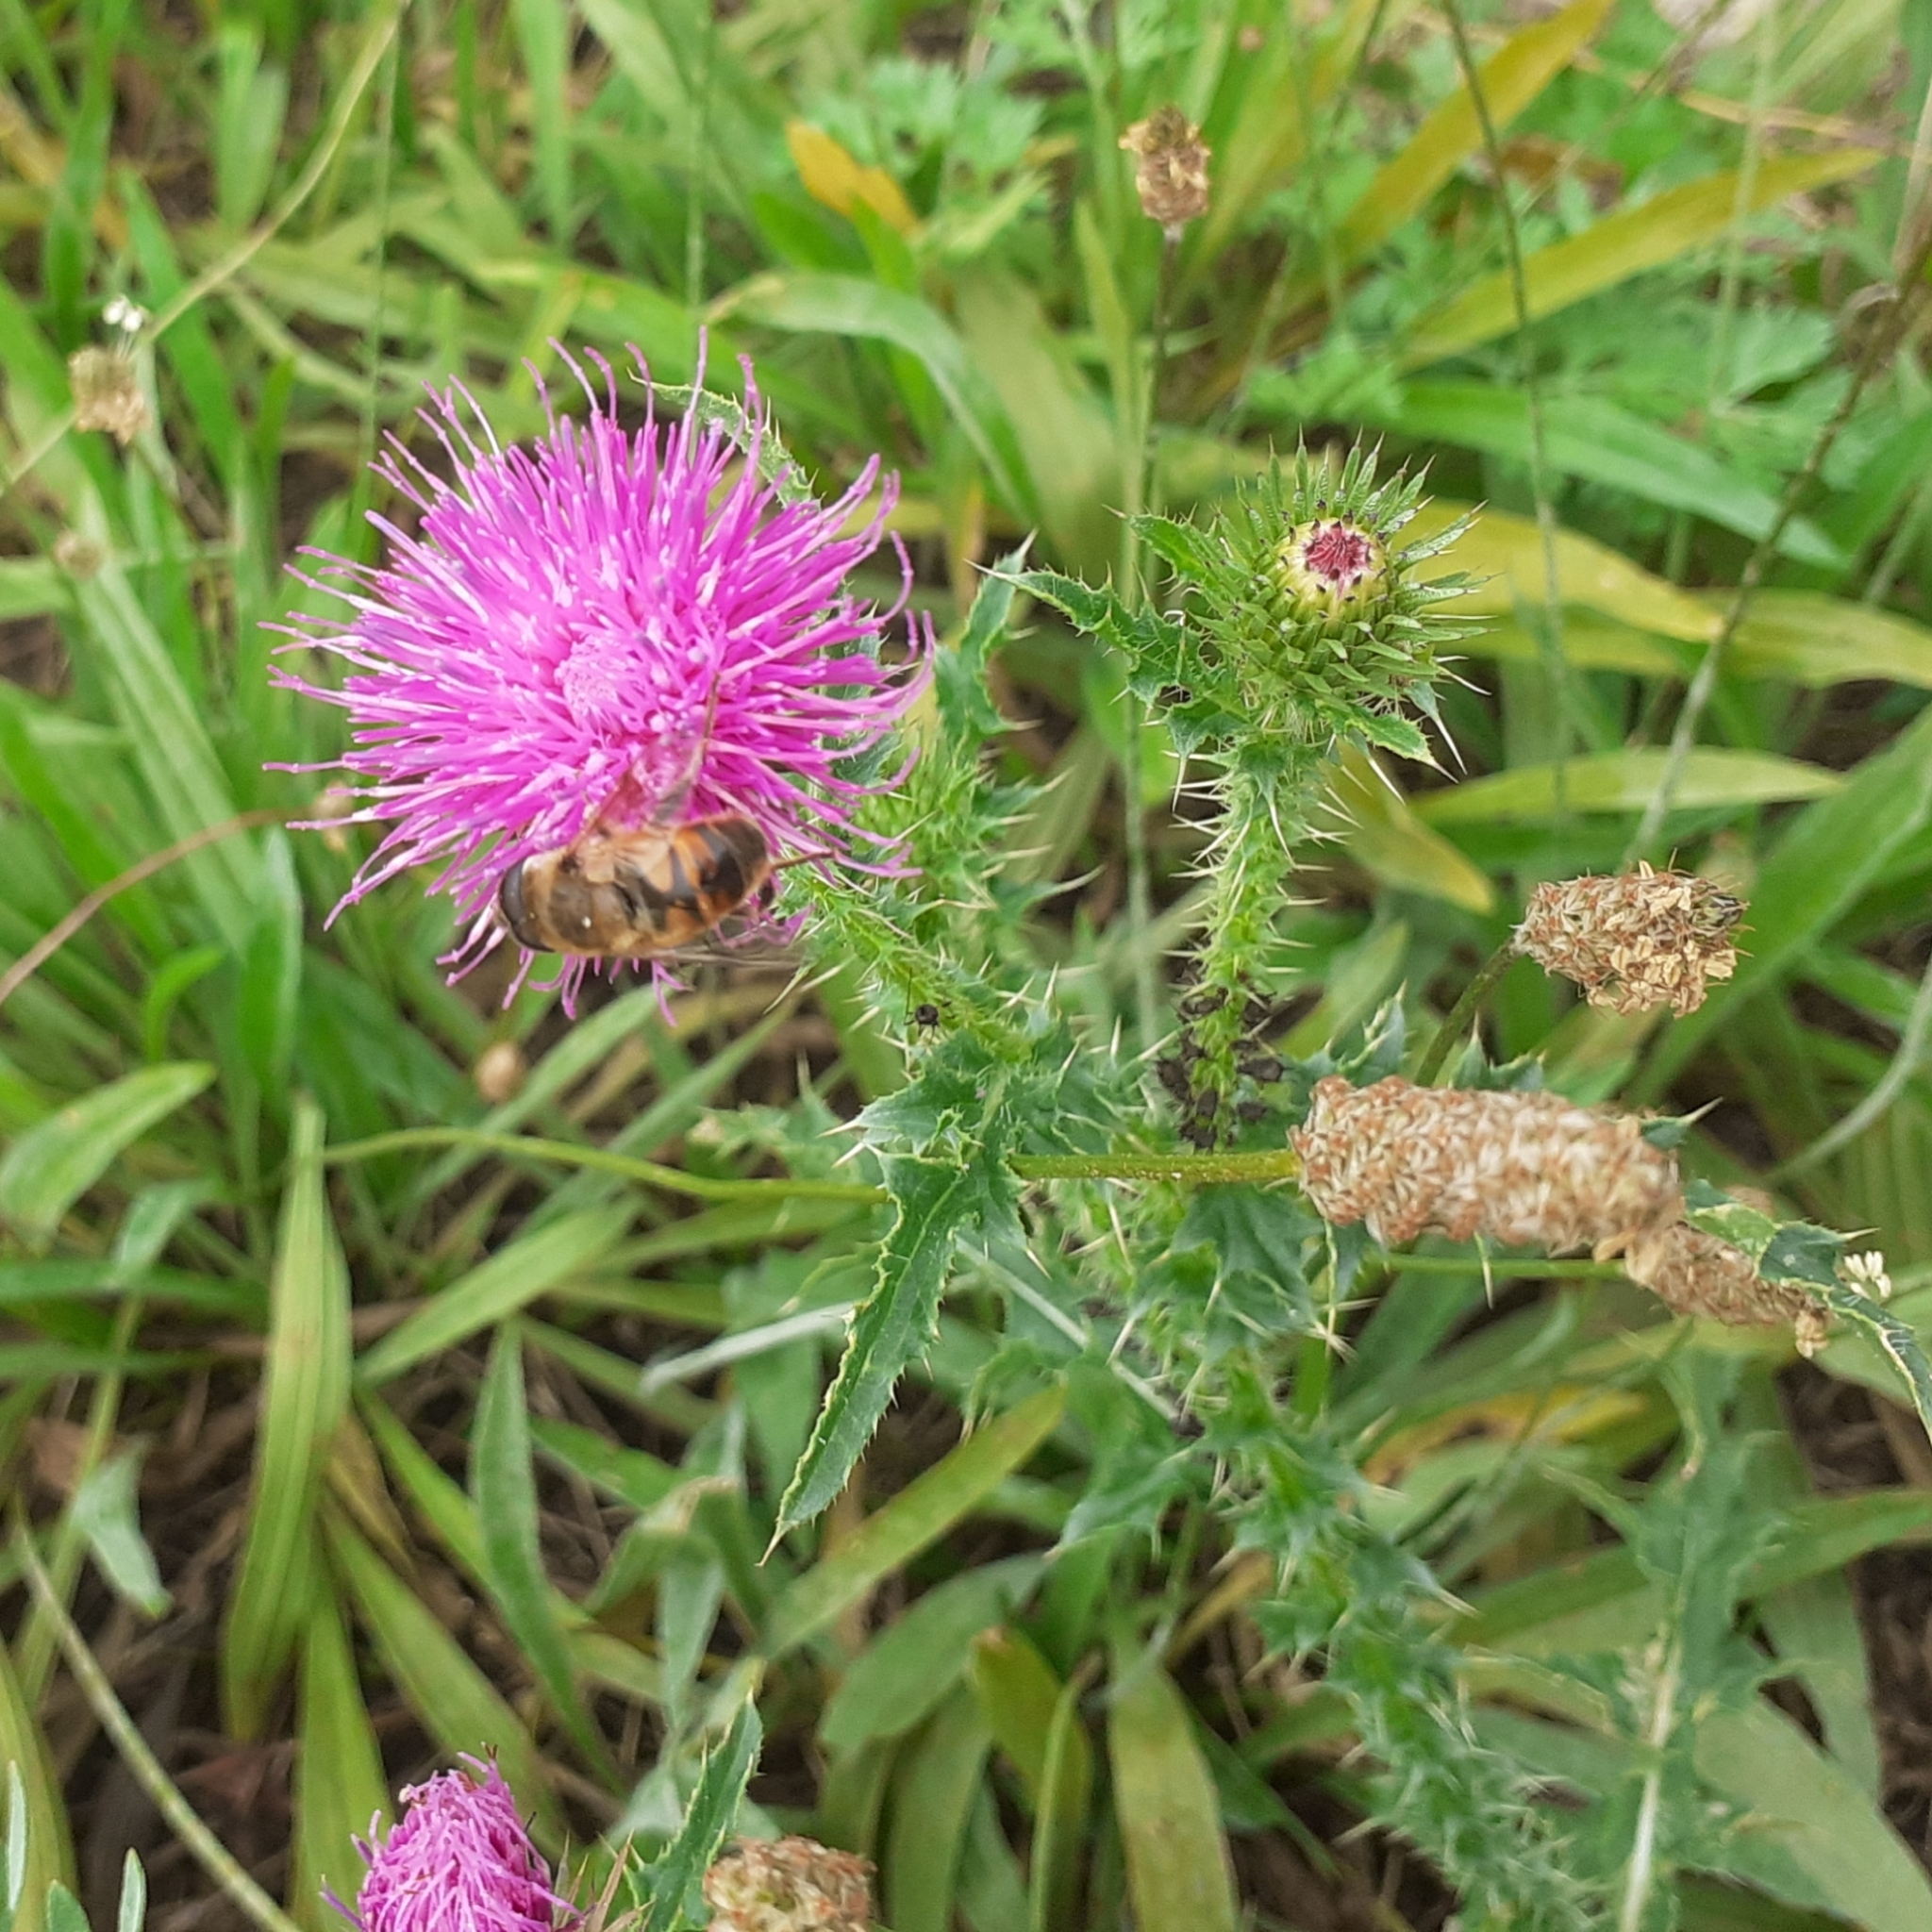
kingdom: Plantae
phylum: Tracheophyta
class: Magnoliopsida
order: Asterales
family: Asteraceae
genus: Carduus
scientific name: Carduus acanthoides
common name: Plumeless thistle
